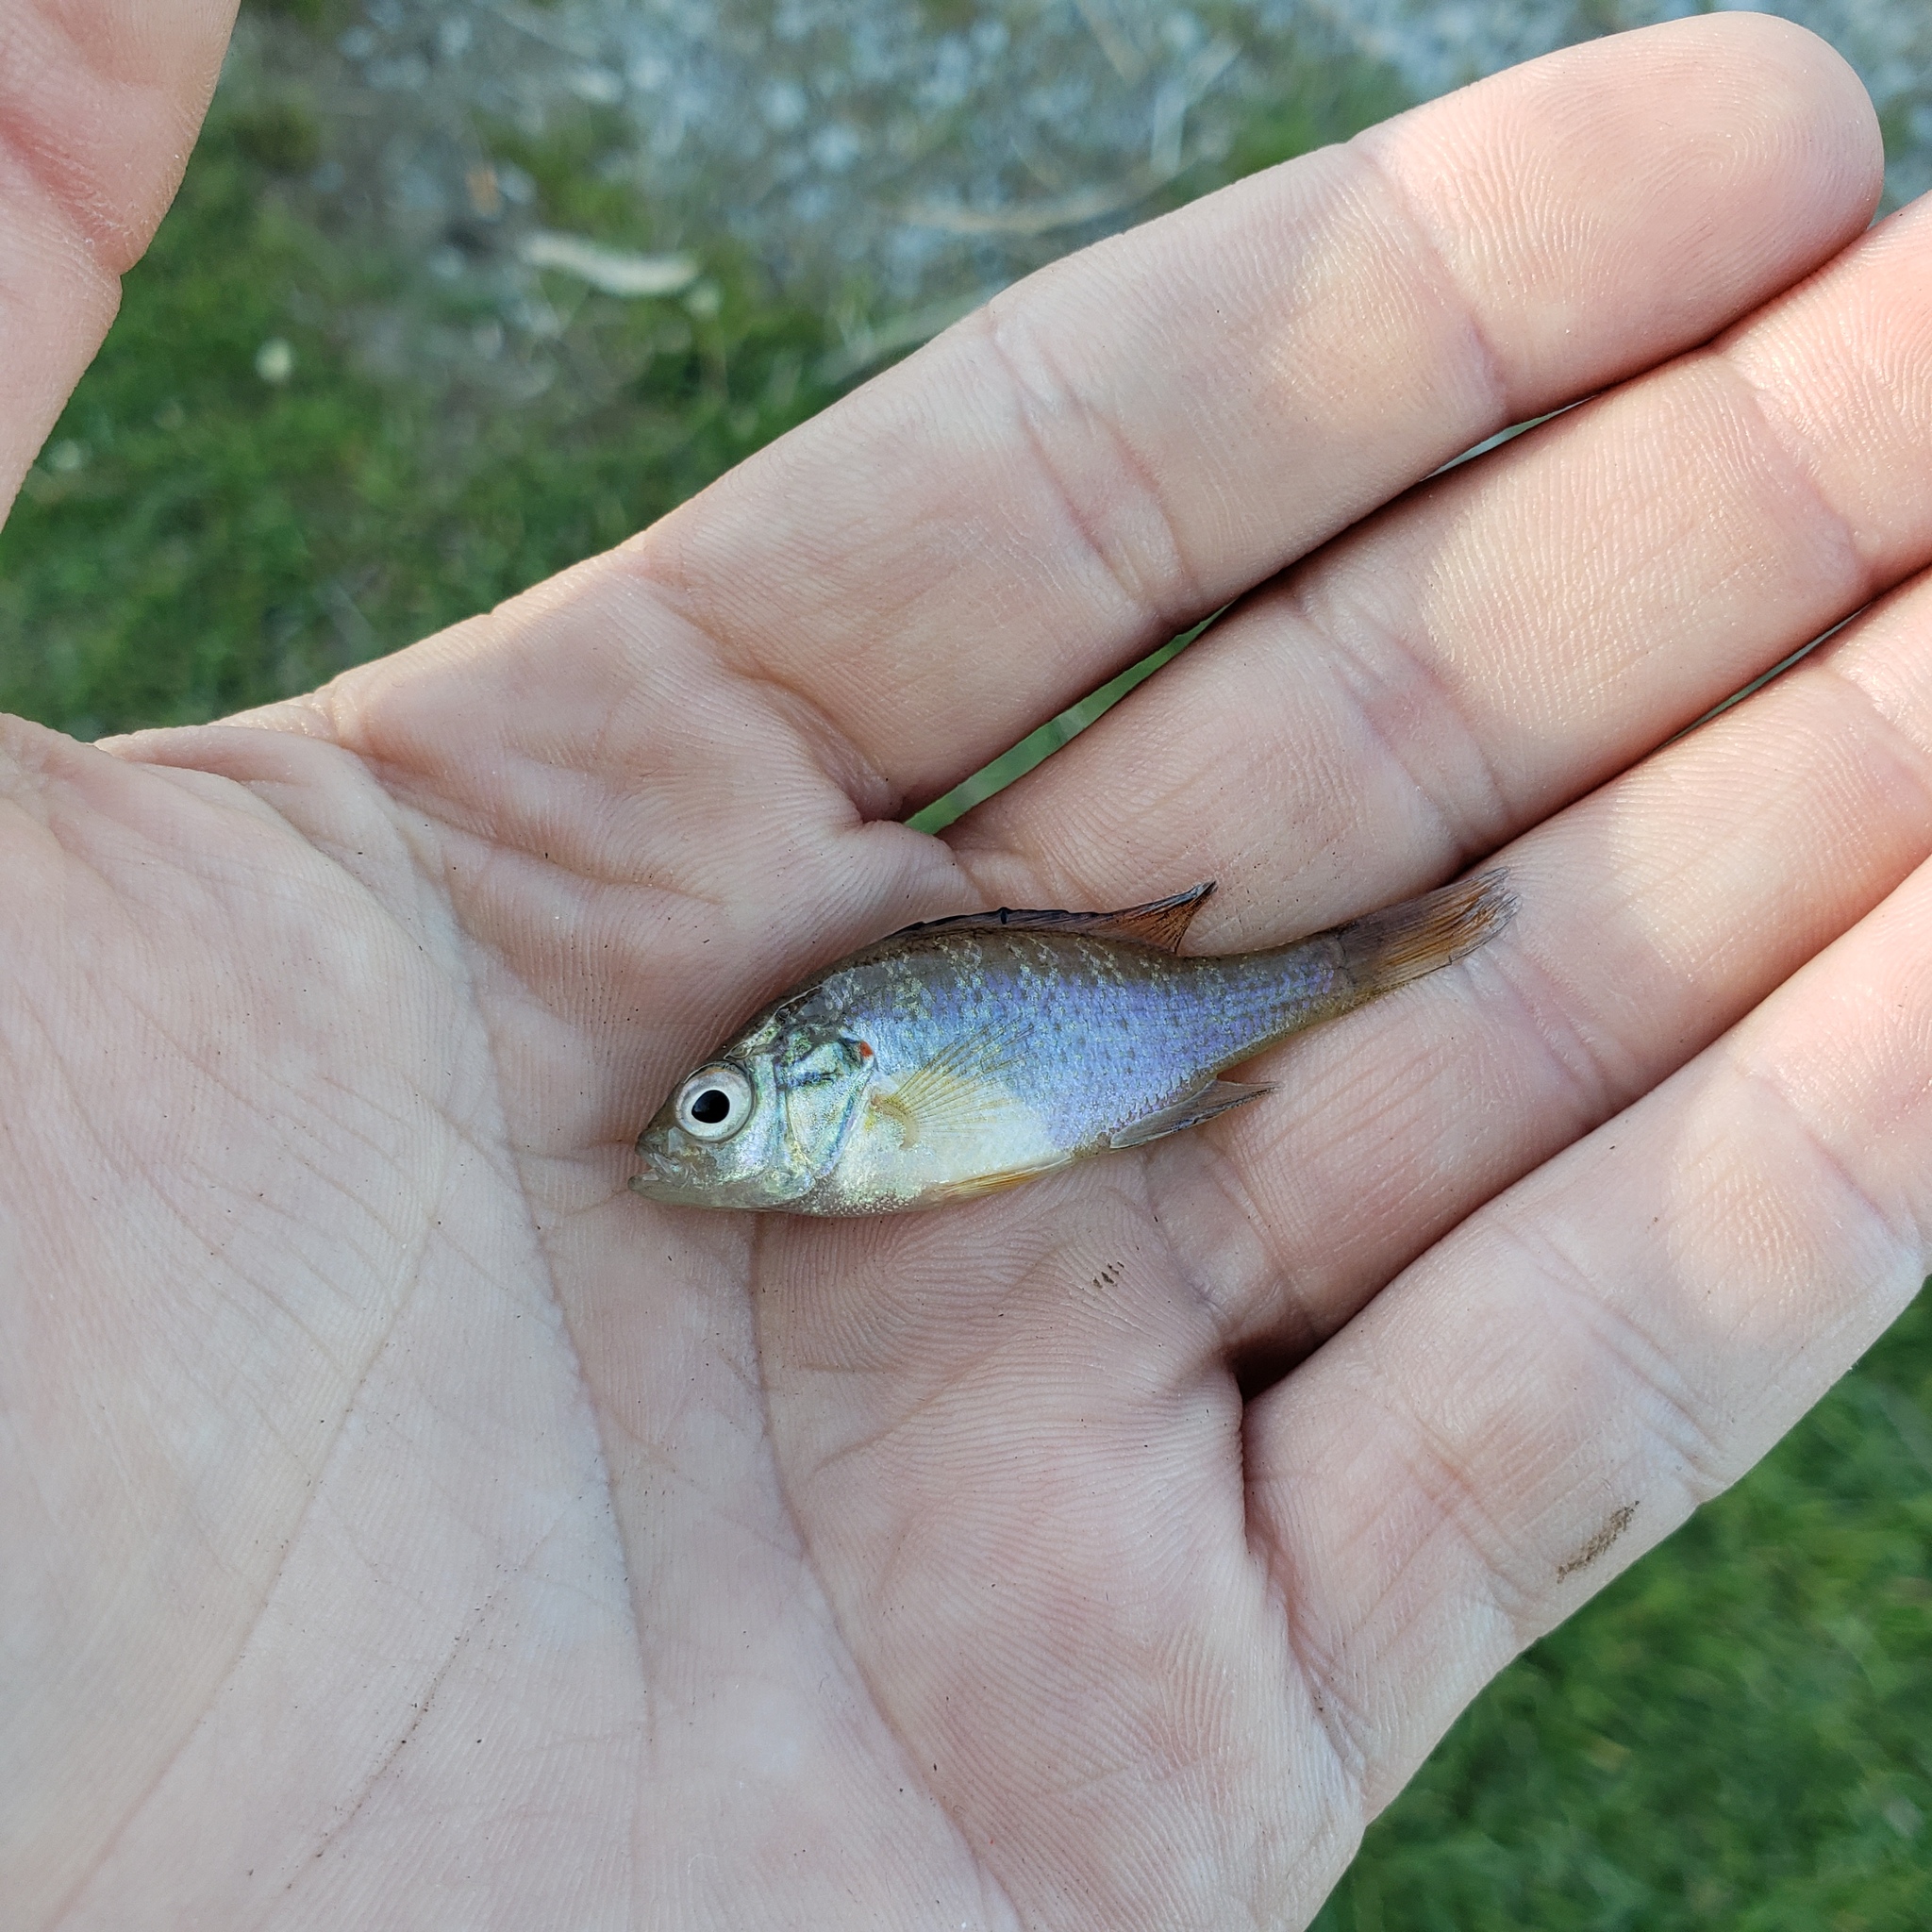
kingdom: Animalia
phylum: Chordata
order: Perciformes
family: Centrarchidae
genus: Lepomis
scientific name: Lepomis gibbosus
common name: Pumpkinseed
